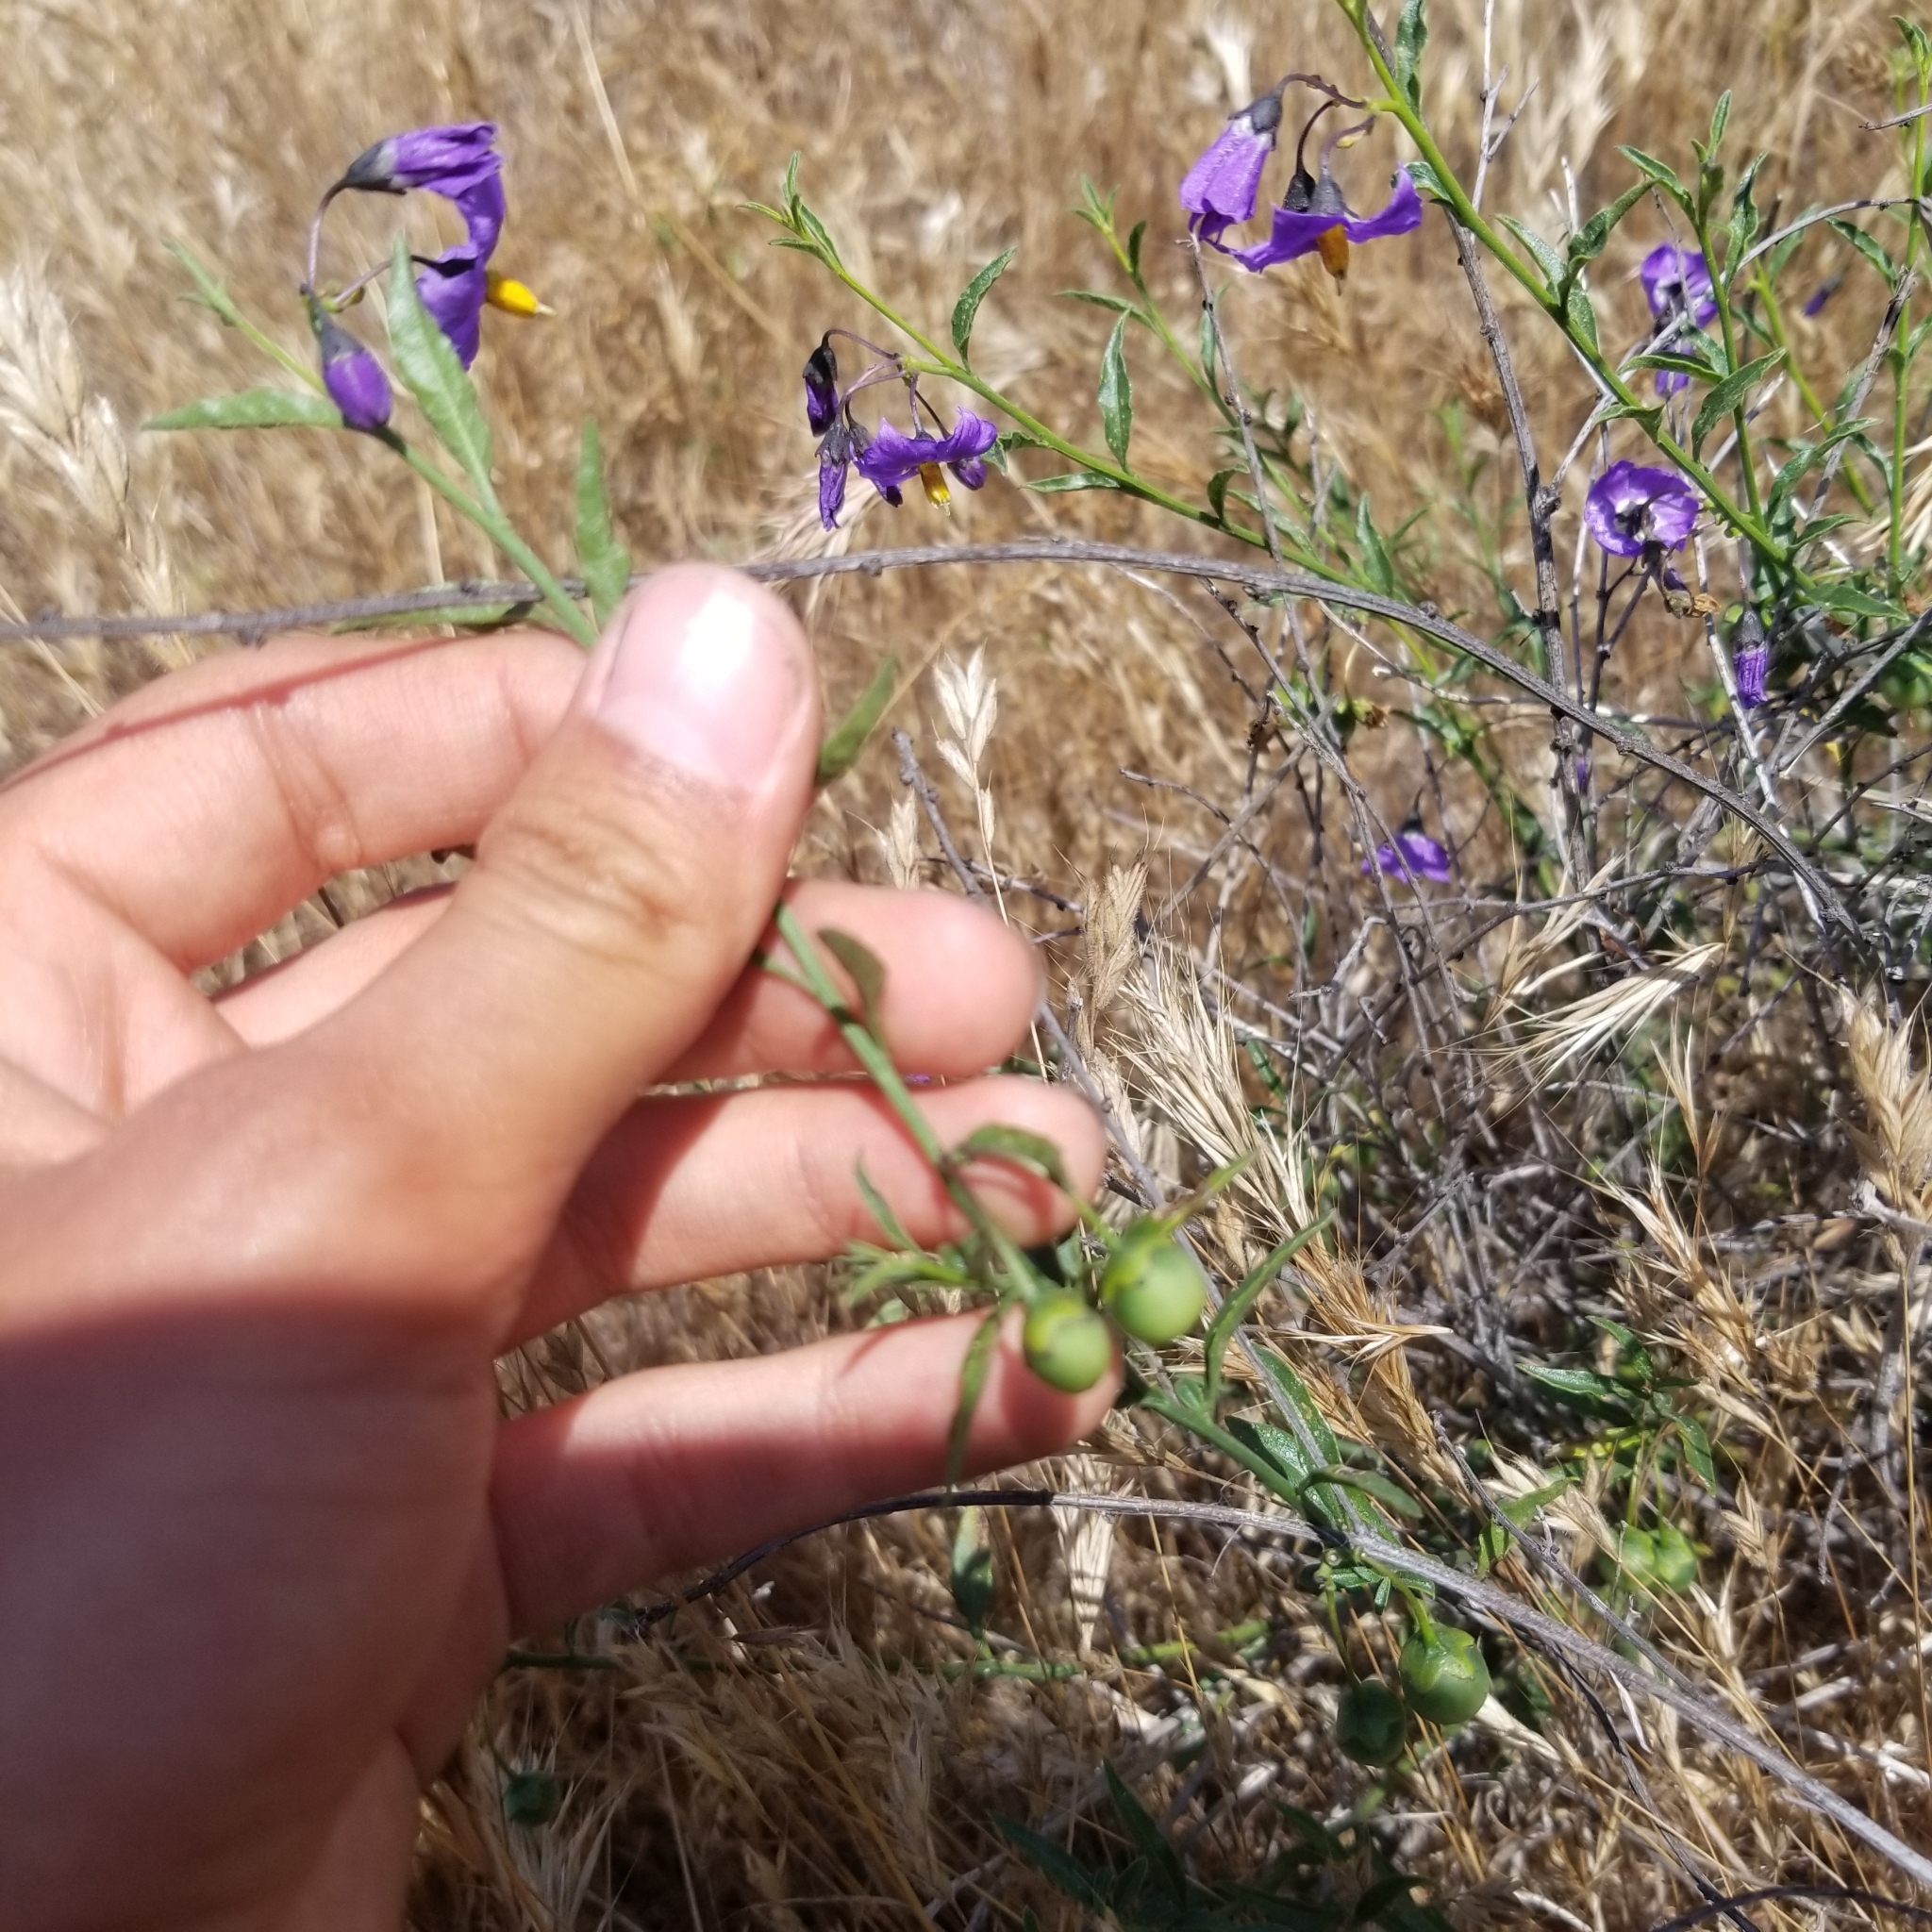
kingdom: Plantae
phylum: Tracheophyta
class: Magnoliopsida
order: Solanales
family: Solanaceae
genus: Solanum
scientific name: Solanum umbelliferum
